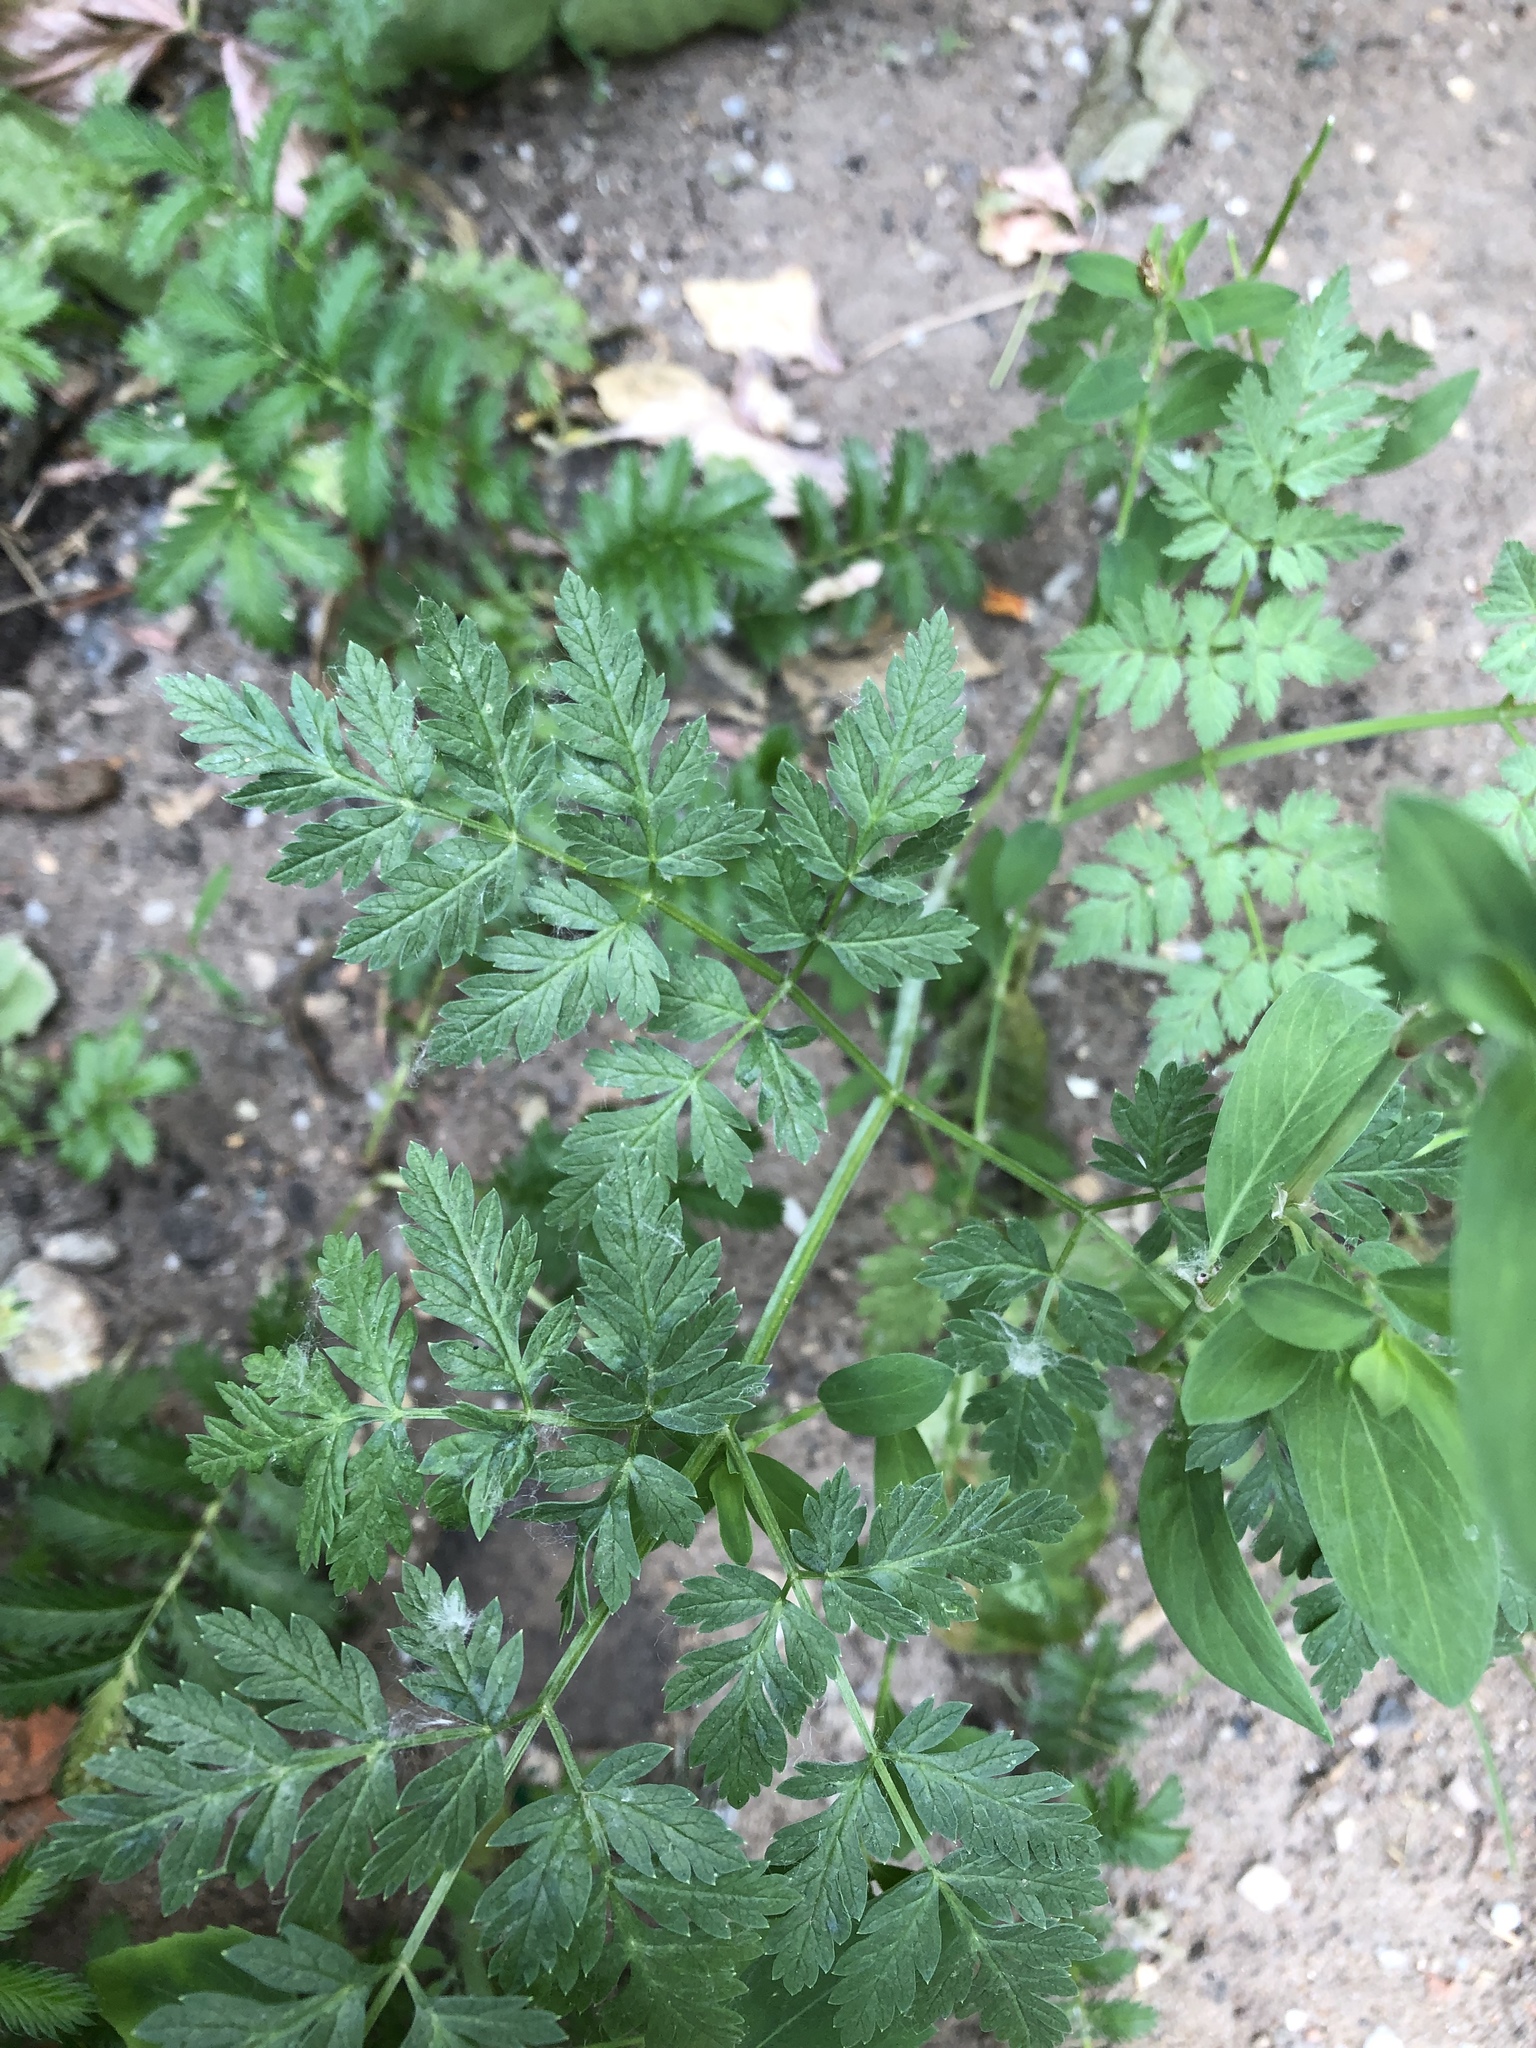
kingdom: Plantae
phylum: Tracheophyta
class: Magnoliopsida
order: Apiales
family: Apiaceae
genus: Anthriscus
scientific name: Anthriscus sylvestris
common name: Cow parsley
